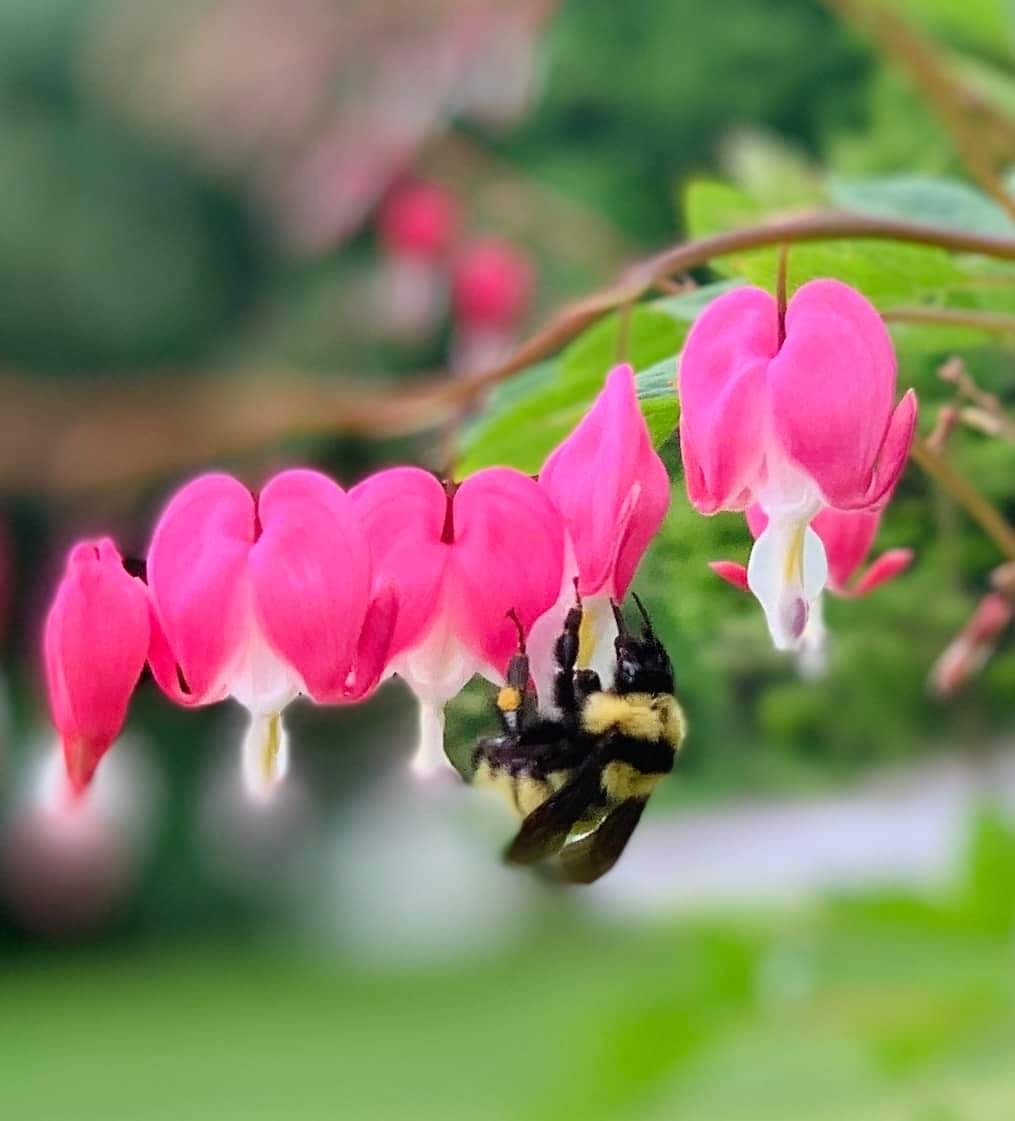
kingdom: Animalia
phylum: Arthropoda
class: Insecta
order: Hymenoptera
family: Apidae
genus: Bombus
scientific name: Bombus fervidus
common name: Yellow bumble bee
